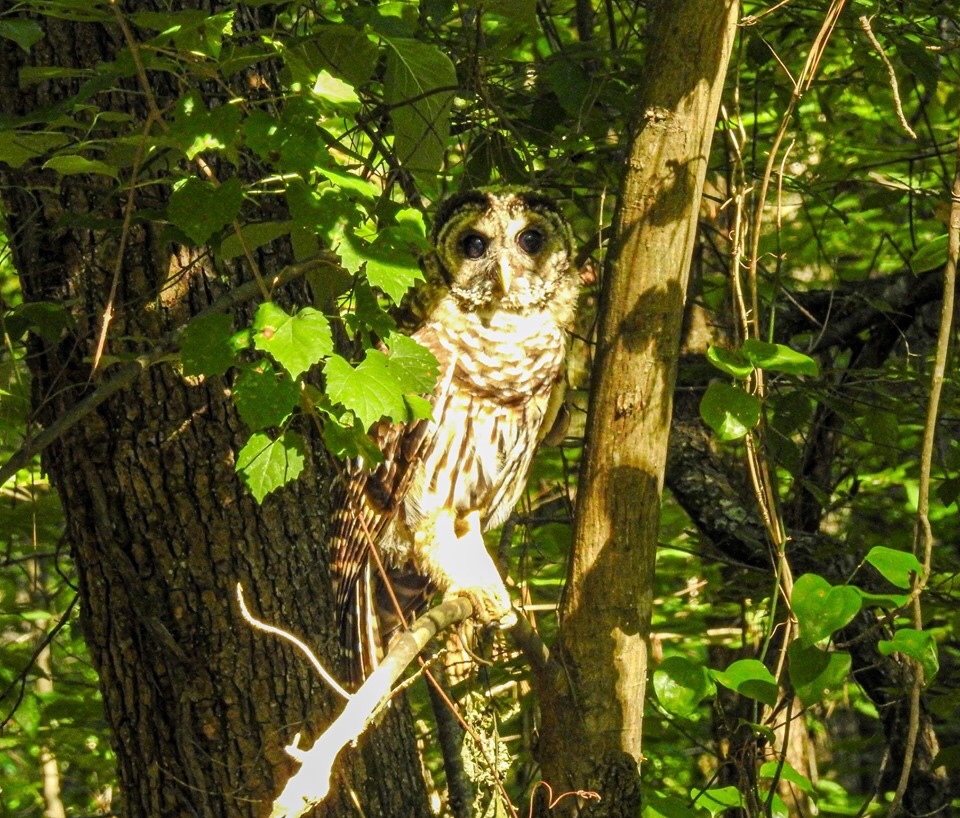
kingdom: Animalia
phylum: Chordata
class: Aves
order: Strigiformes
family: Strigidae
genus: Strix
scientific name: Strix varia
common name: Barred owl
